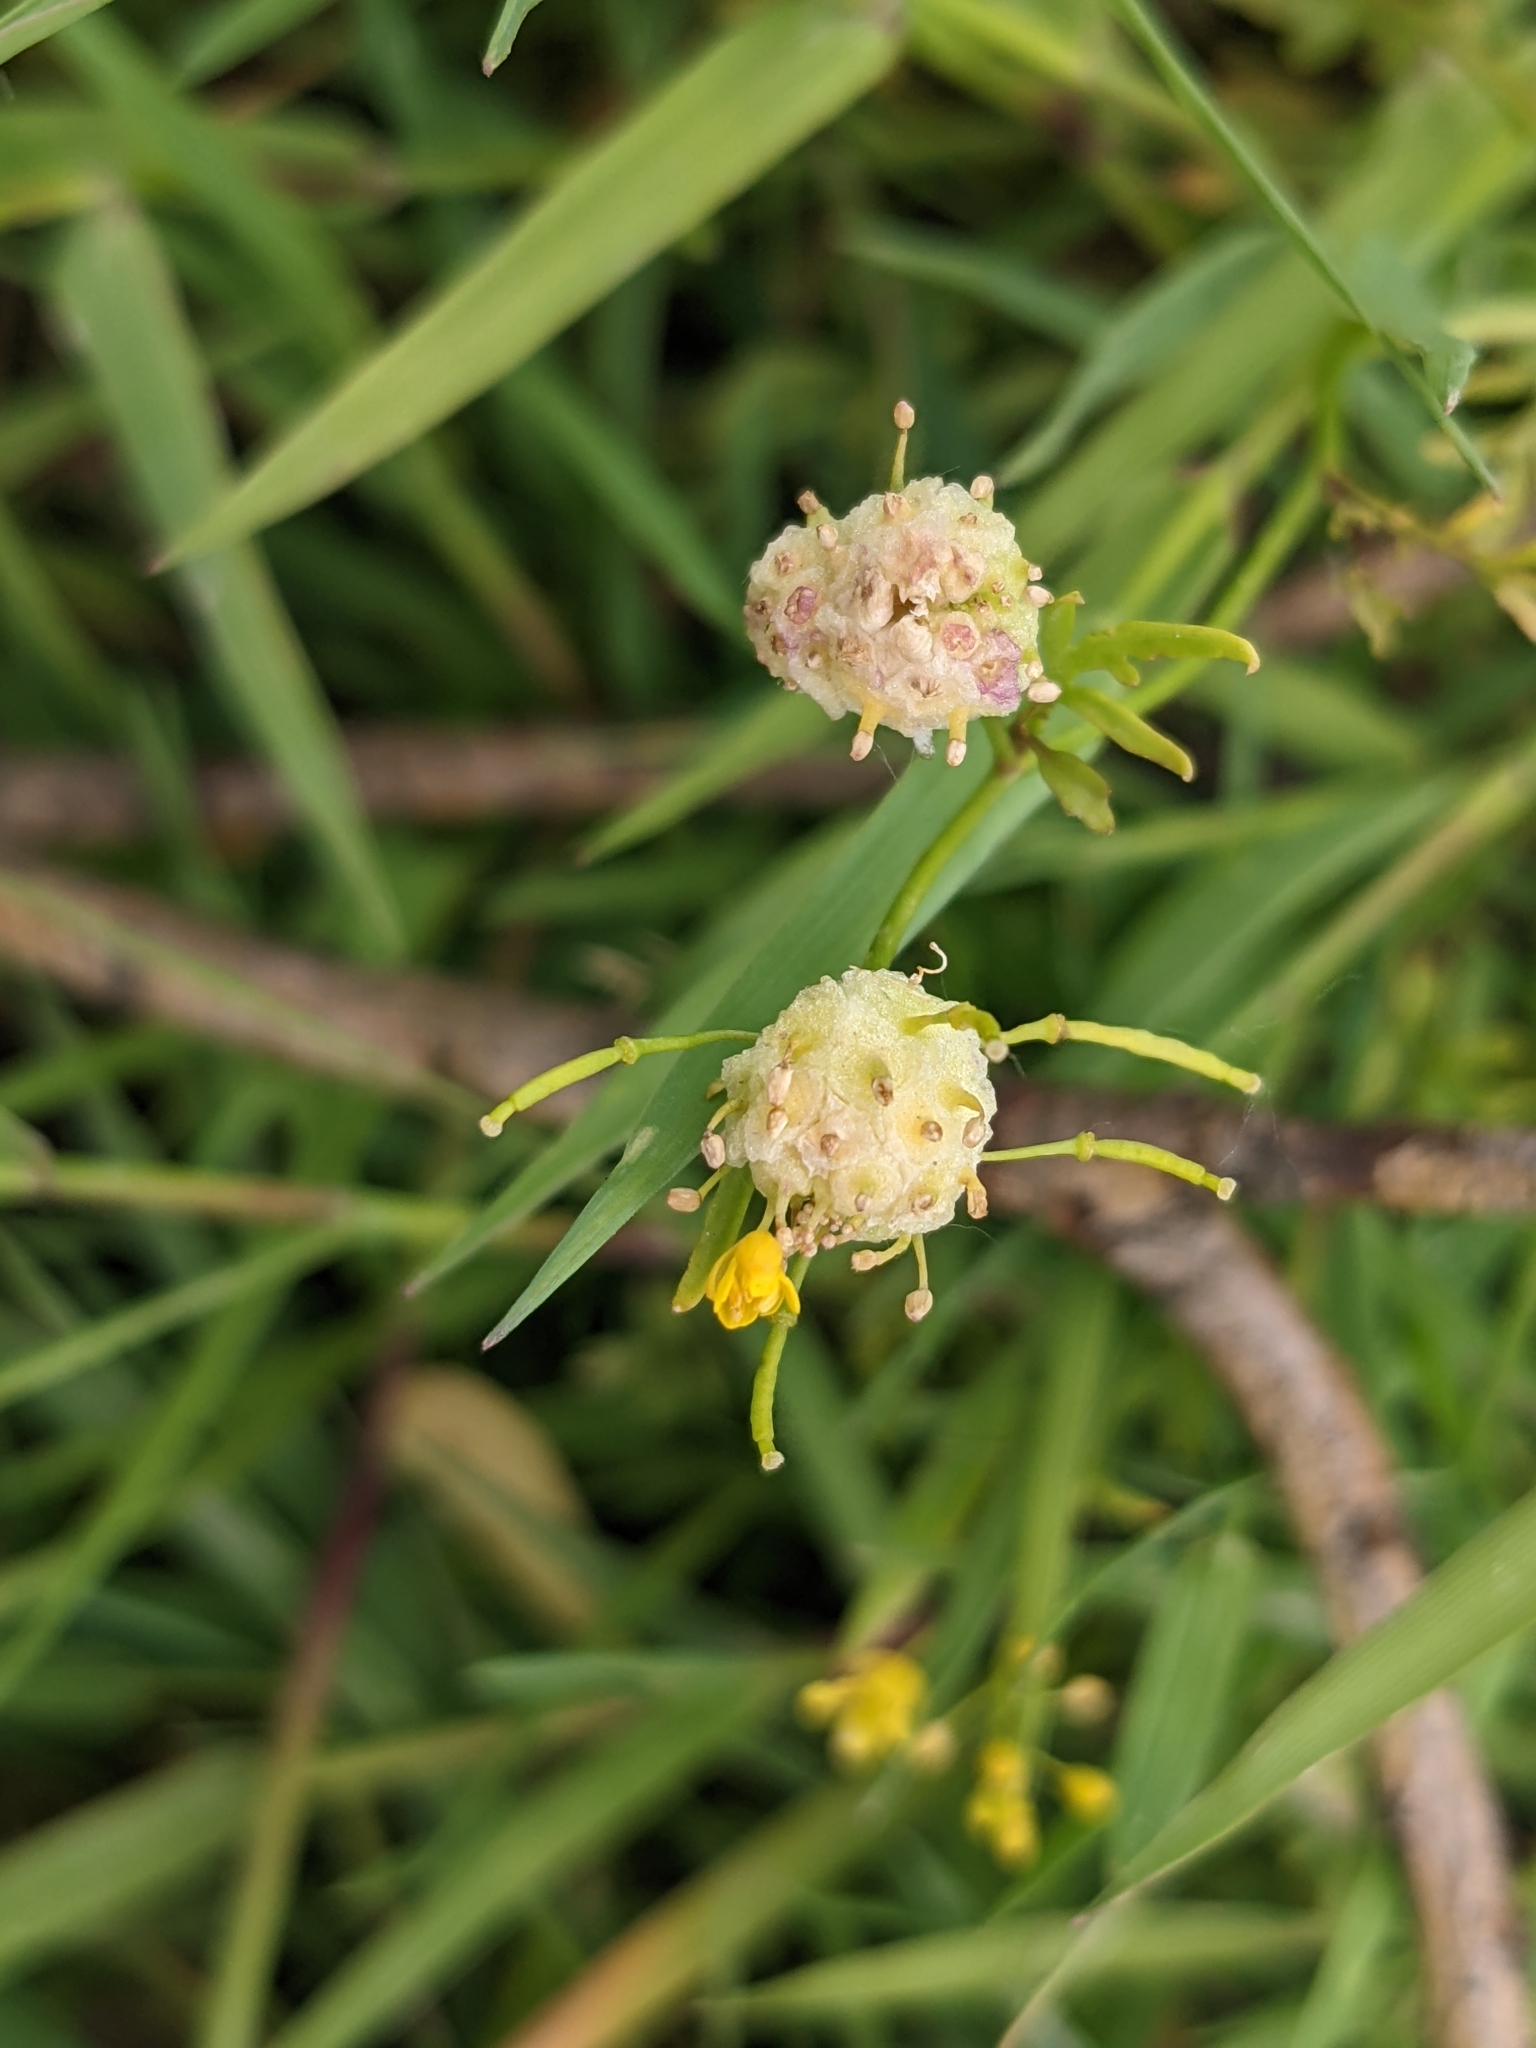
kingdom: Animalia
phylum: Arthropoda
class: Insecta
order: Diptera
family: Cecidomyiidae
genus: Dasineura
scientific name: Dasineura sisymbrii
